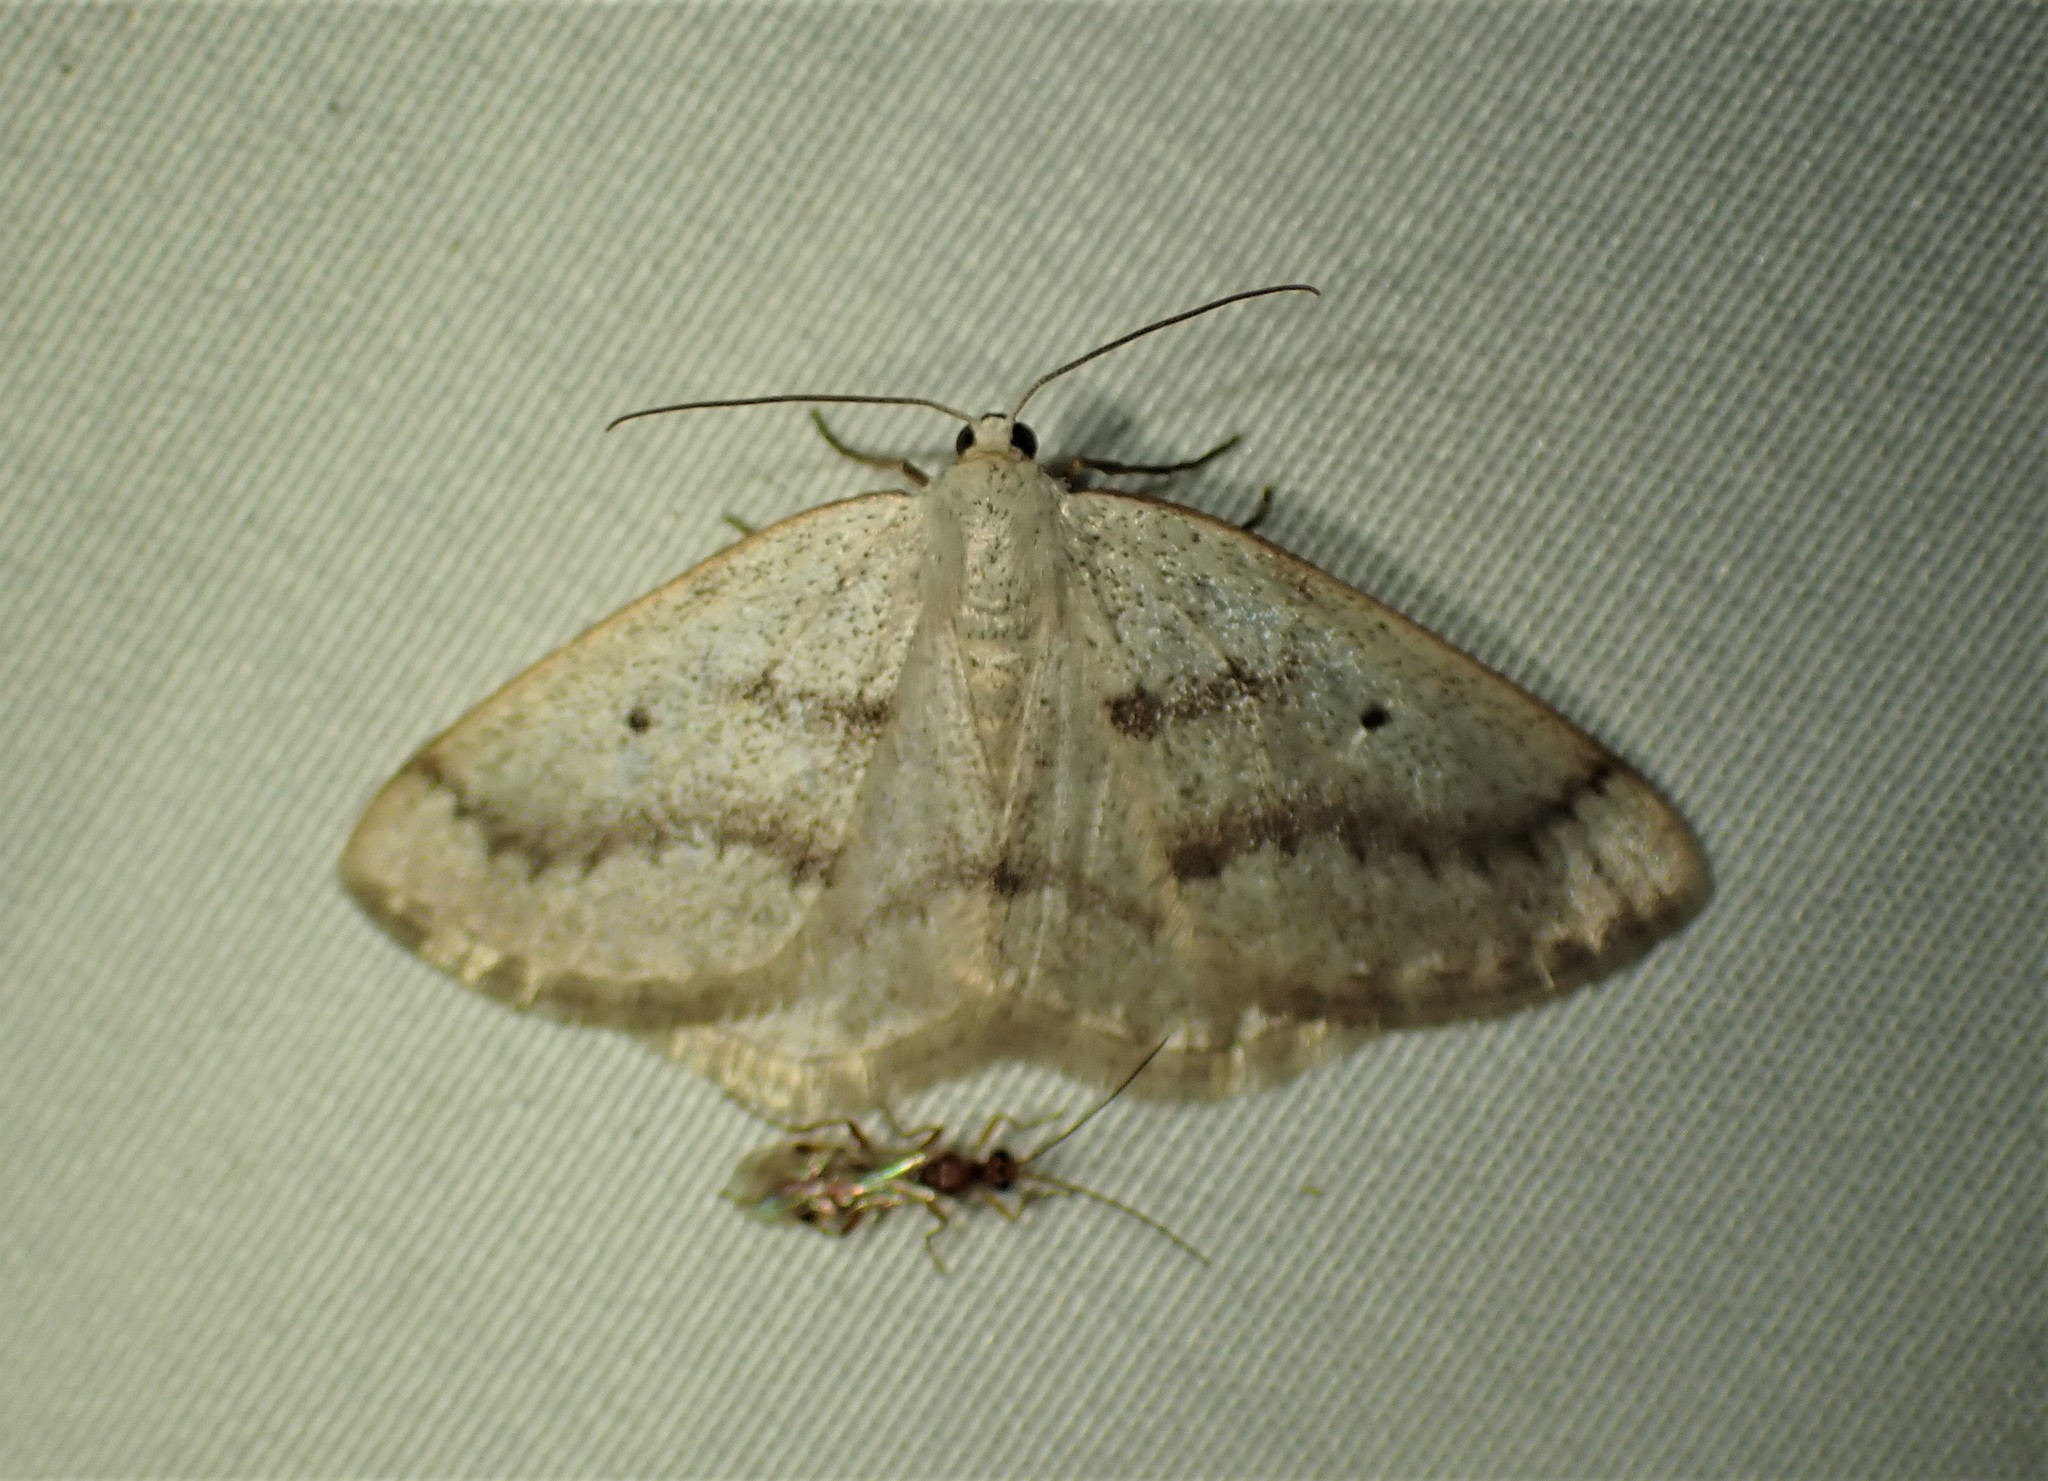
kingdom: Animalia
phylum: Arthropoda
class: Insecta
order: Lepidoptera
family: Geometridae
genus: Lomographa
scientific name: Lomographa glomeraria
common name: Gray spring moth
